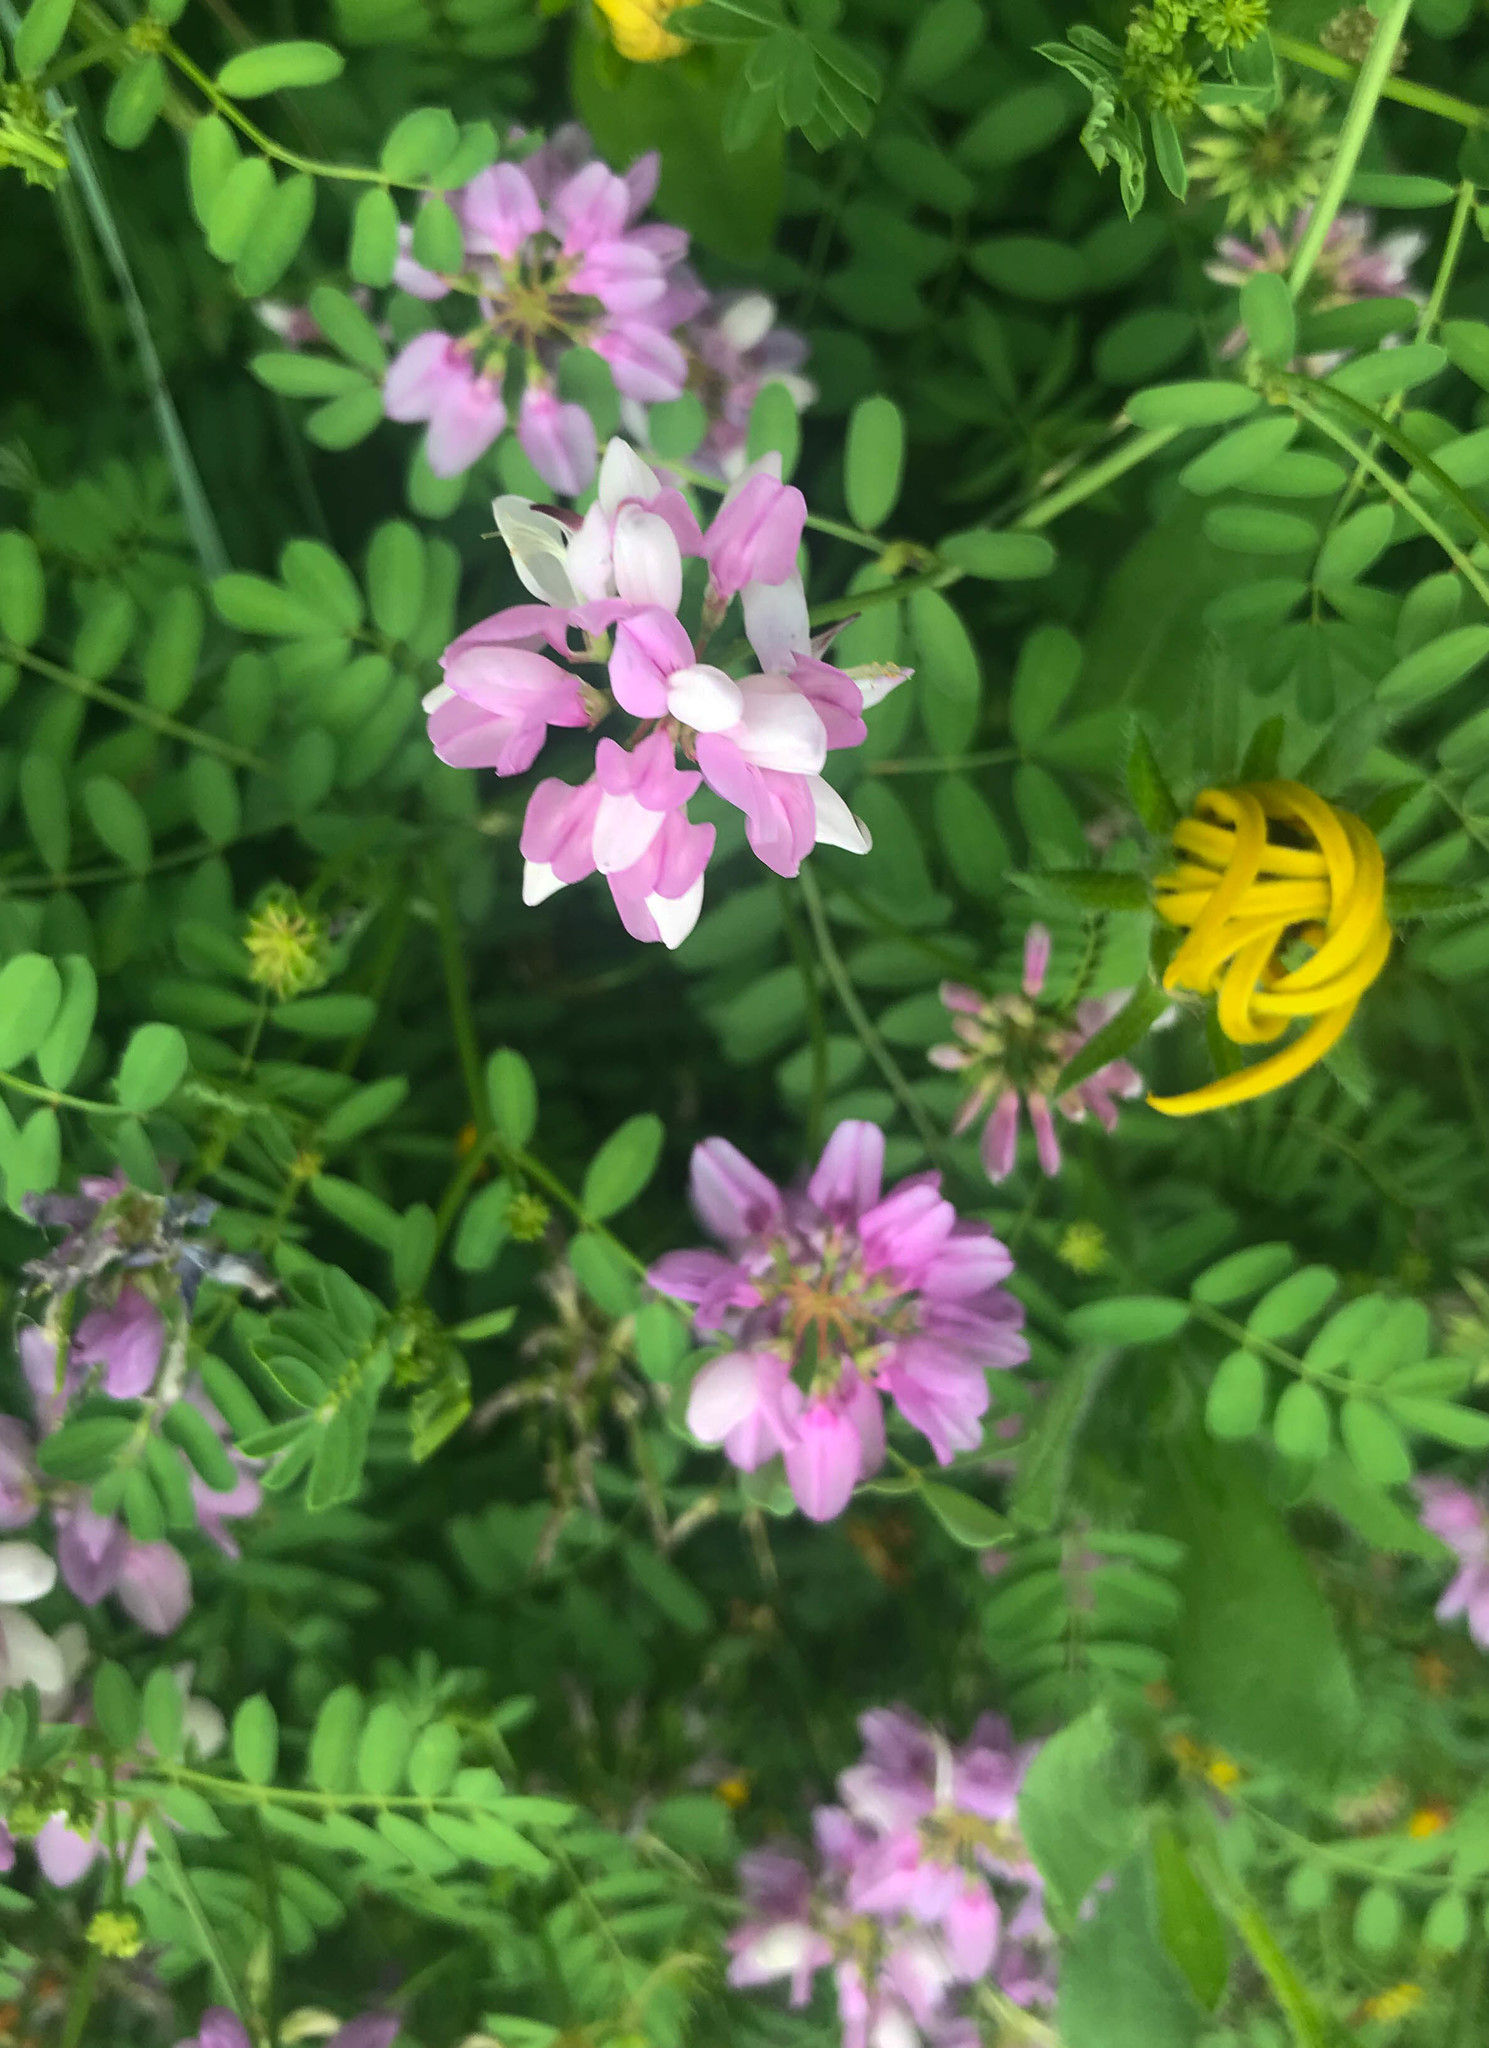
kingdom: Plantae
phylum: Tracheophyta
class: Magnoliopsida
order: Fabales
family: Fabaceae
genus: Coronilla
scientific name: Coronilla varia
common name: Crownvetch
